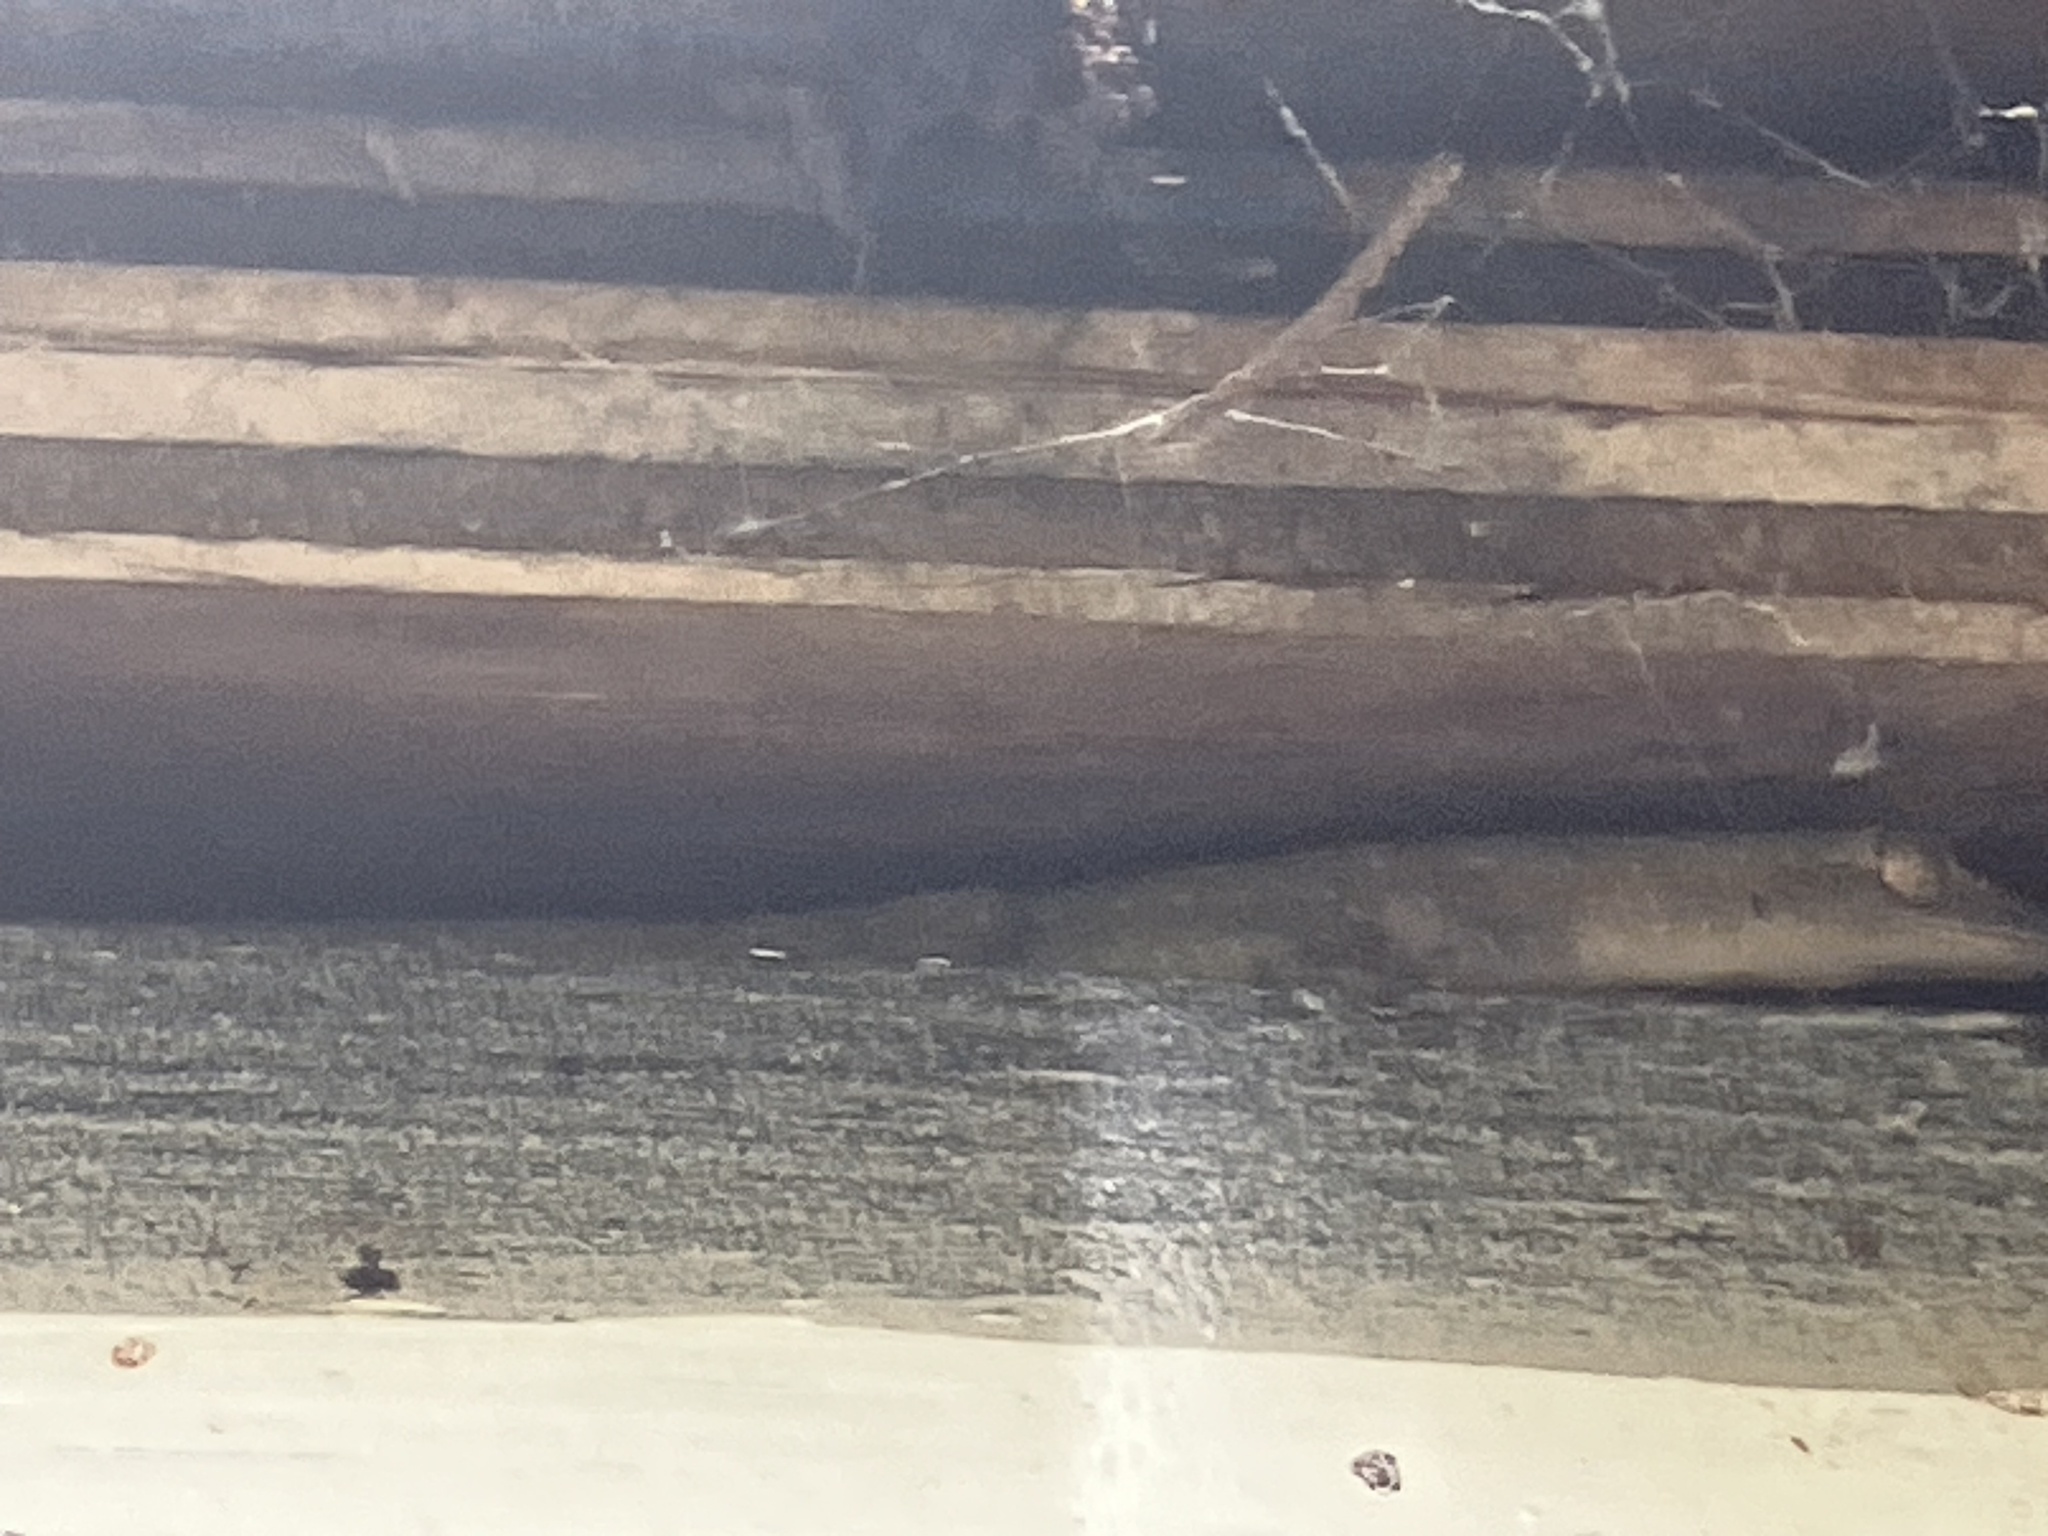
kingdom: Animalia
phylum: Chordata
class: Squamata
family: Gekkonidae
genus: Hemidactylus
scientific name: Hemidactylus garnotii
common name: Indo-pacific gecko
